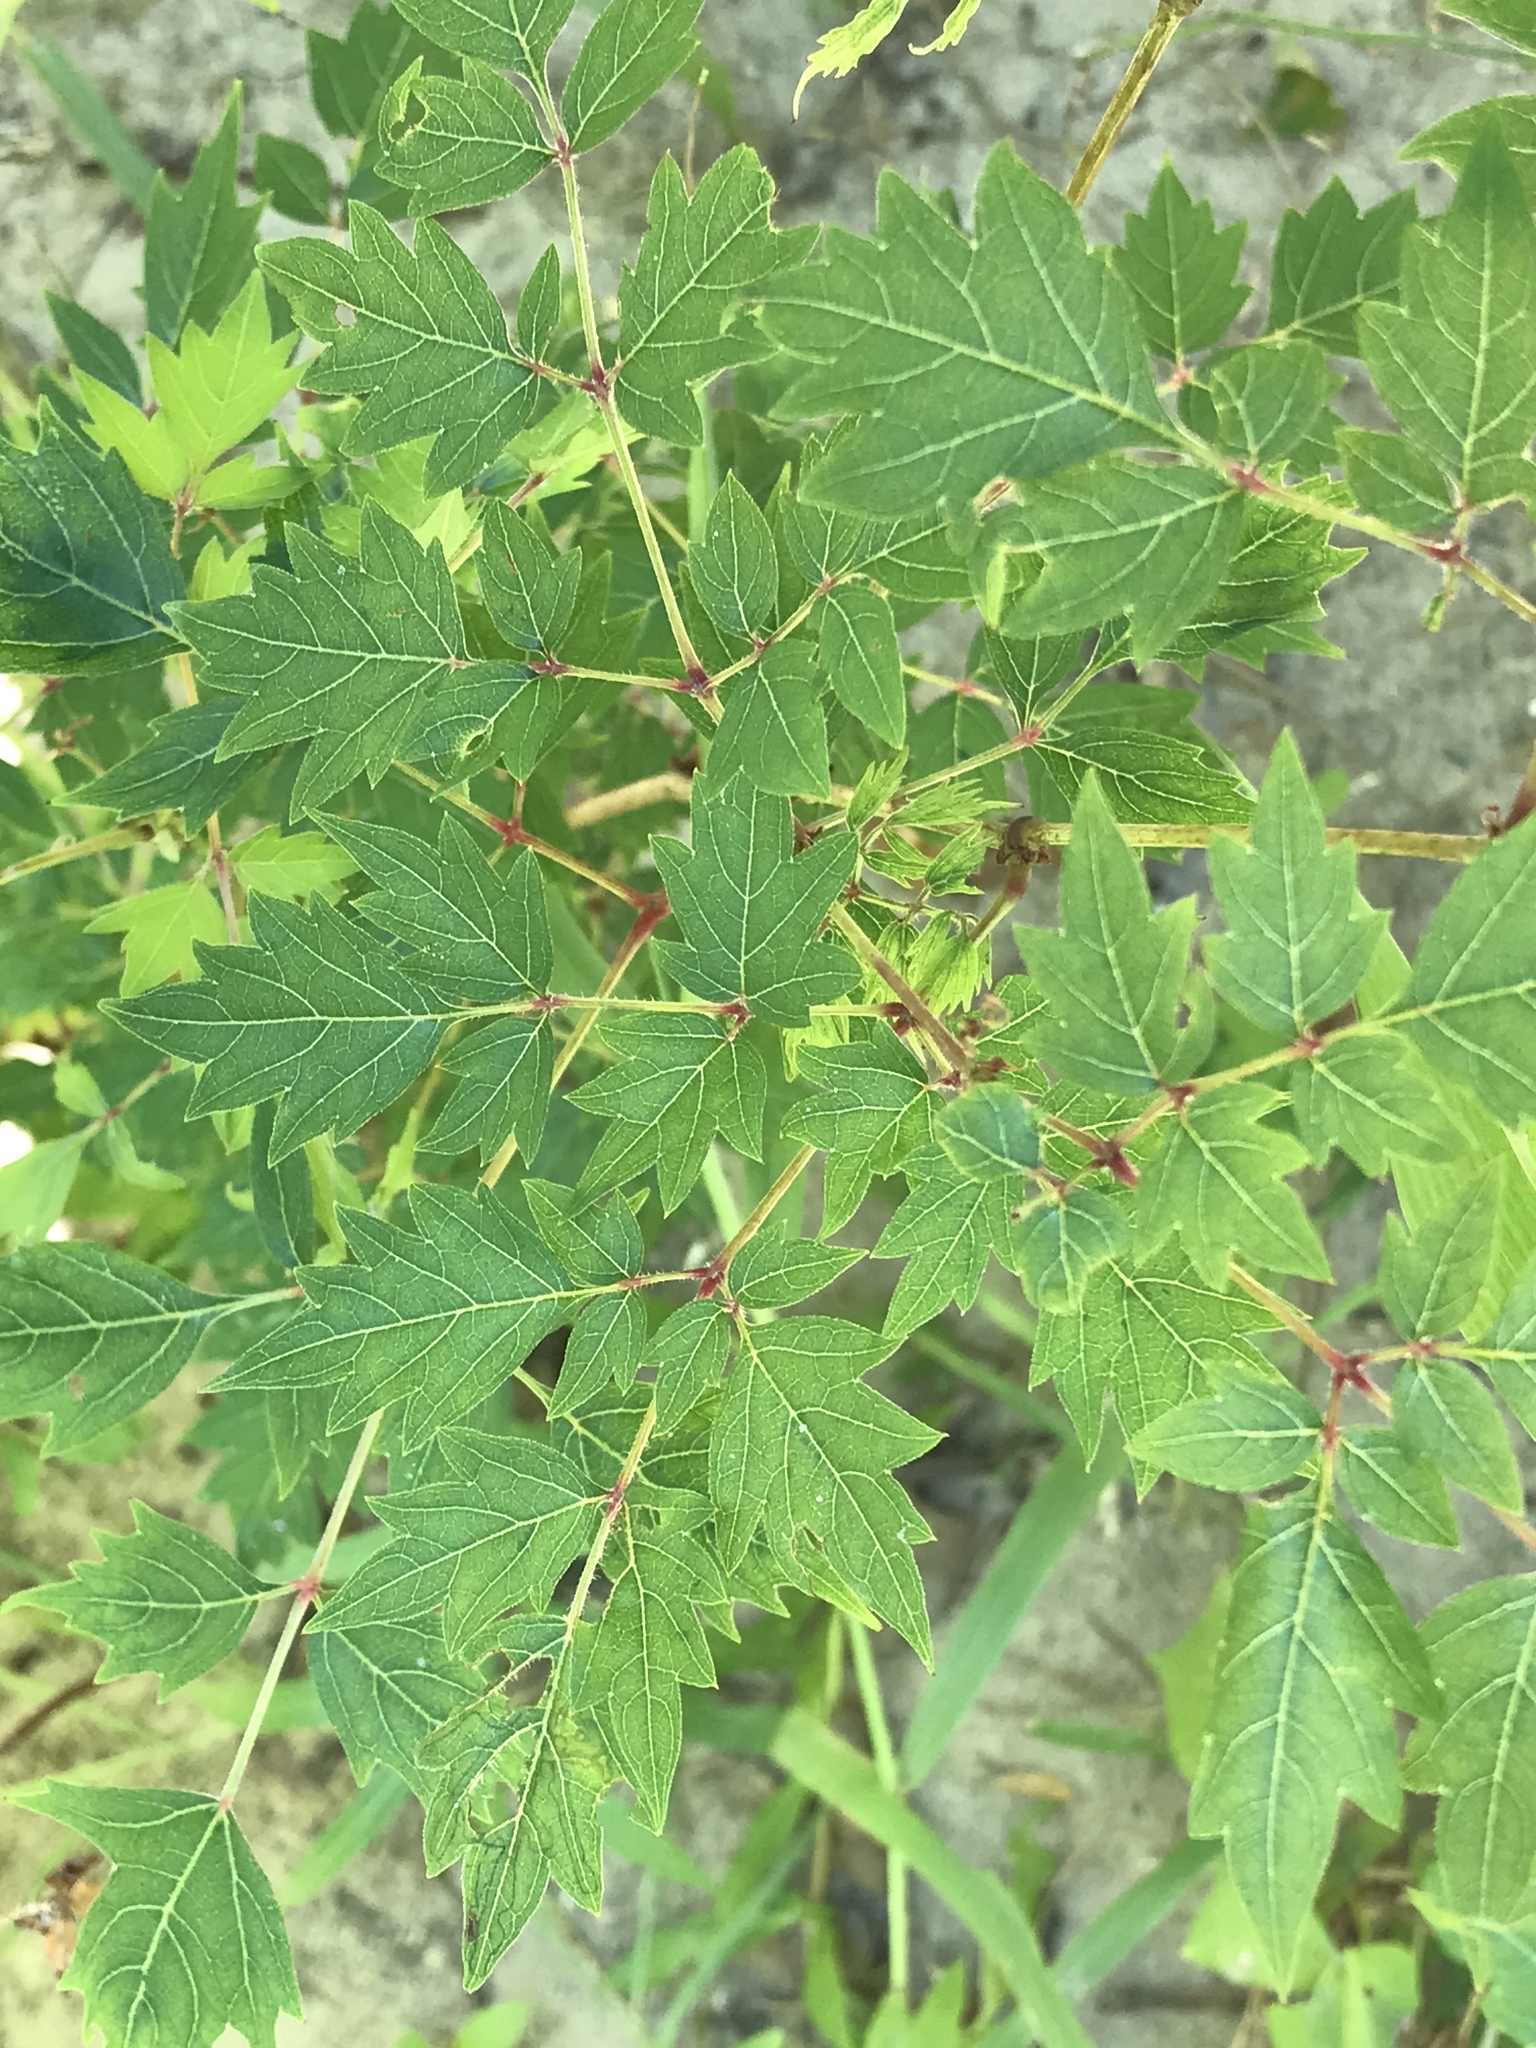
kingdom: Plantae
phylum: Tracheophyta
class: Magnoliopsida
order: Vitales
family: Vitaceae
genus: Nekemias
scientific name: Nekemias arborea
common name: Peppervine
